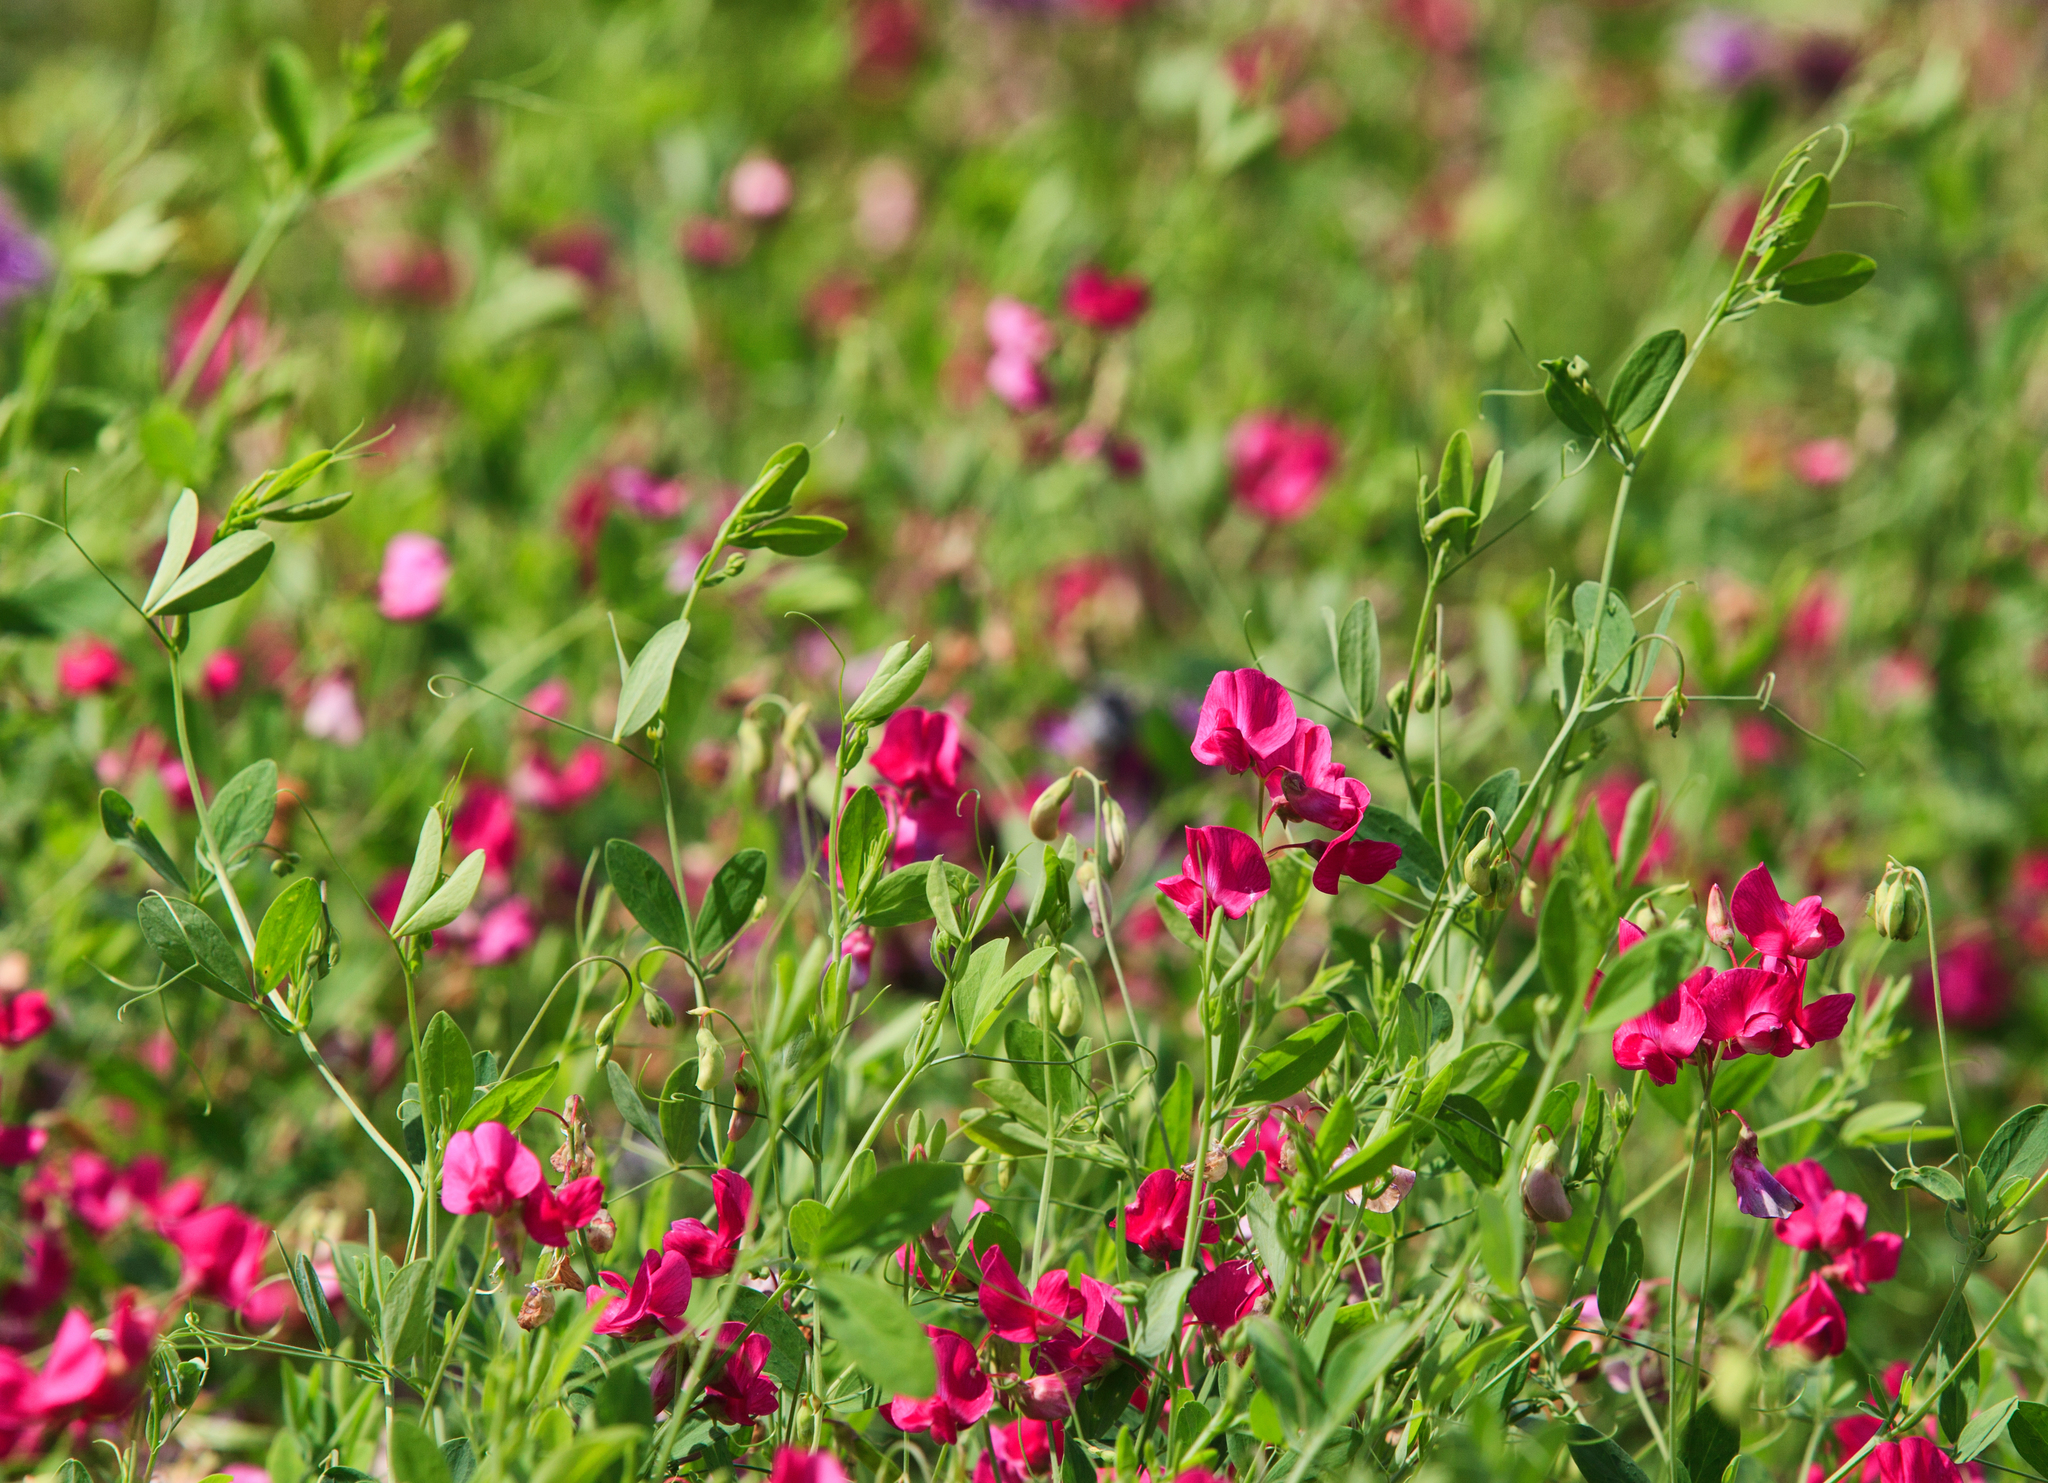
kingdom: Plantae
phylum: Tracheophyta
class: Magnoliopsida
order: Fabales
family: Fabaceae
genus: Lathyrus
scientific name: Lathyrus tuberosus
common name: Tuberous pea
